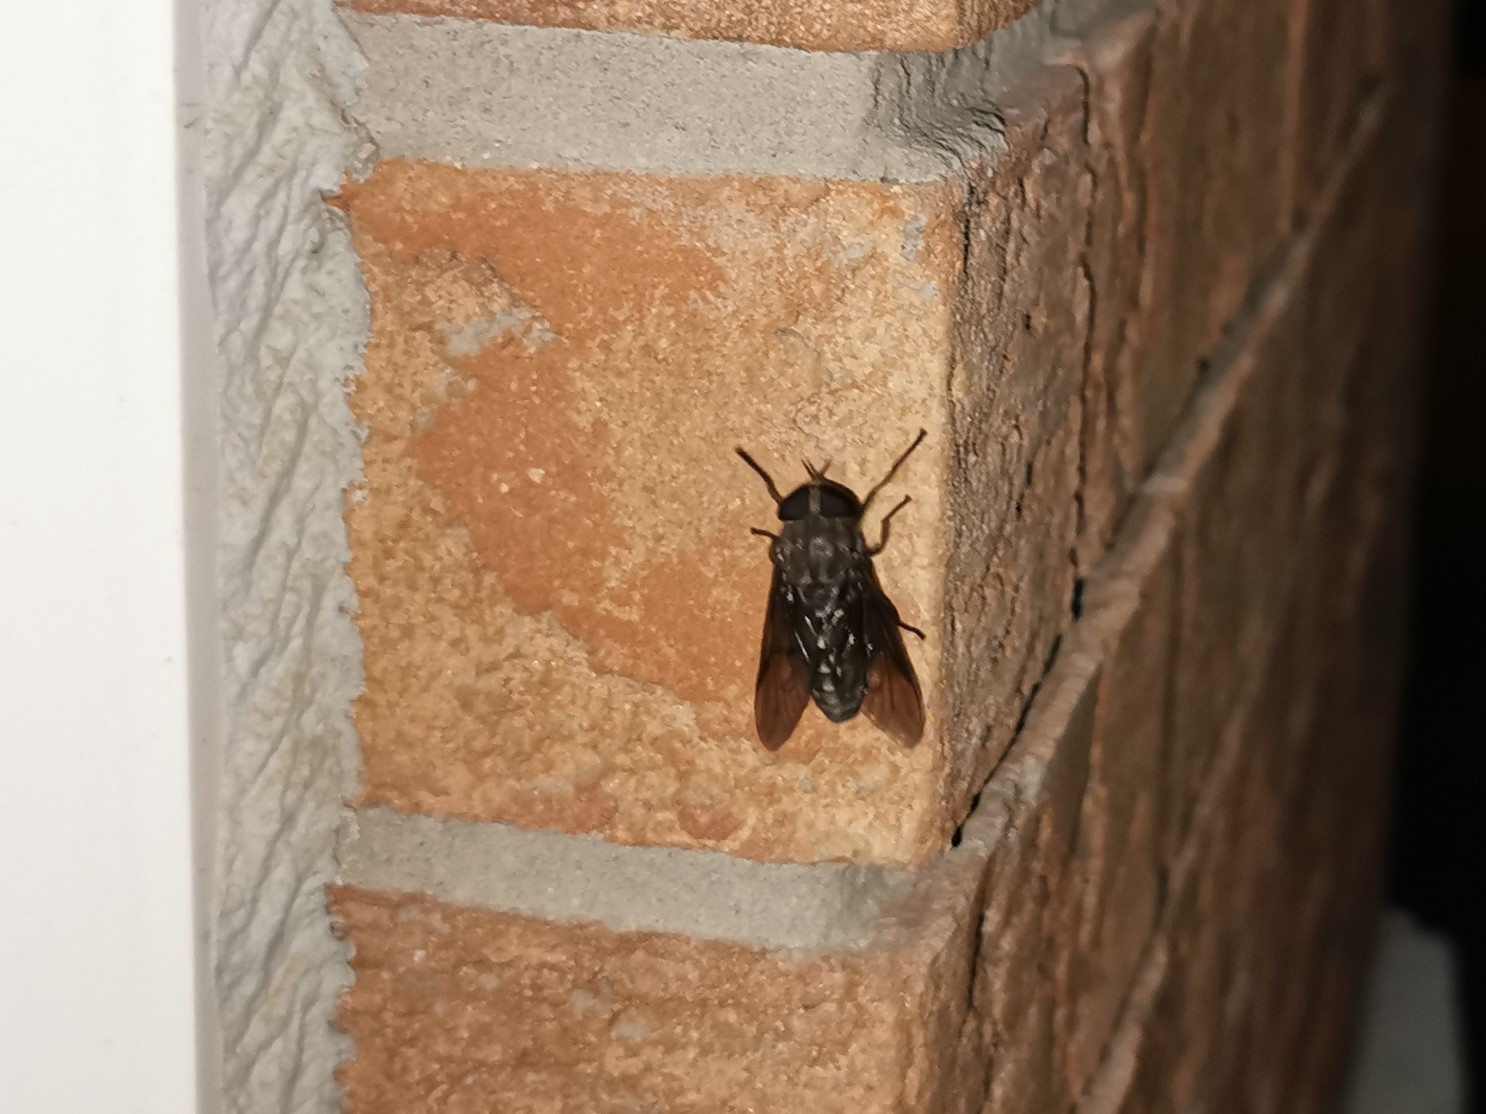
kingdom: Animalia
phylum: Arthropoda
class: Insecta
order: Diptera
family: Tabanidae
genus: Tabanus
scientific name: Tabanus atratus
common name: Black horse fly
